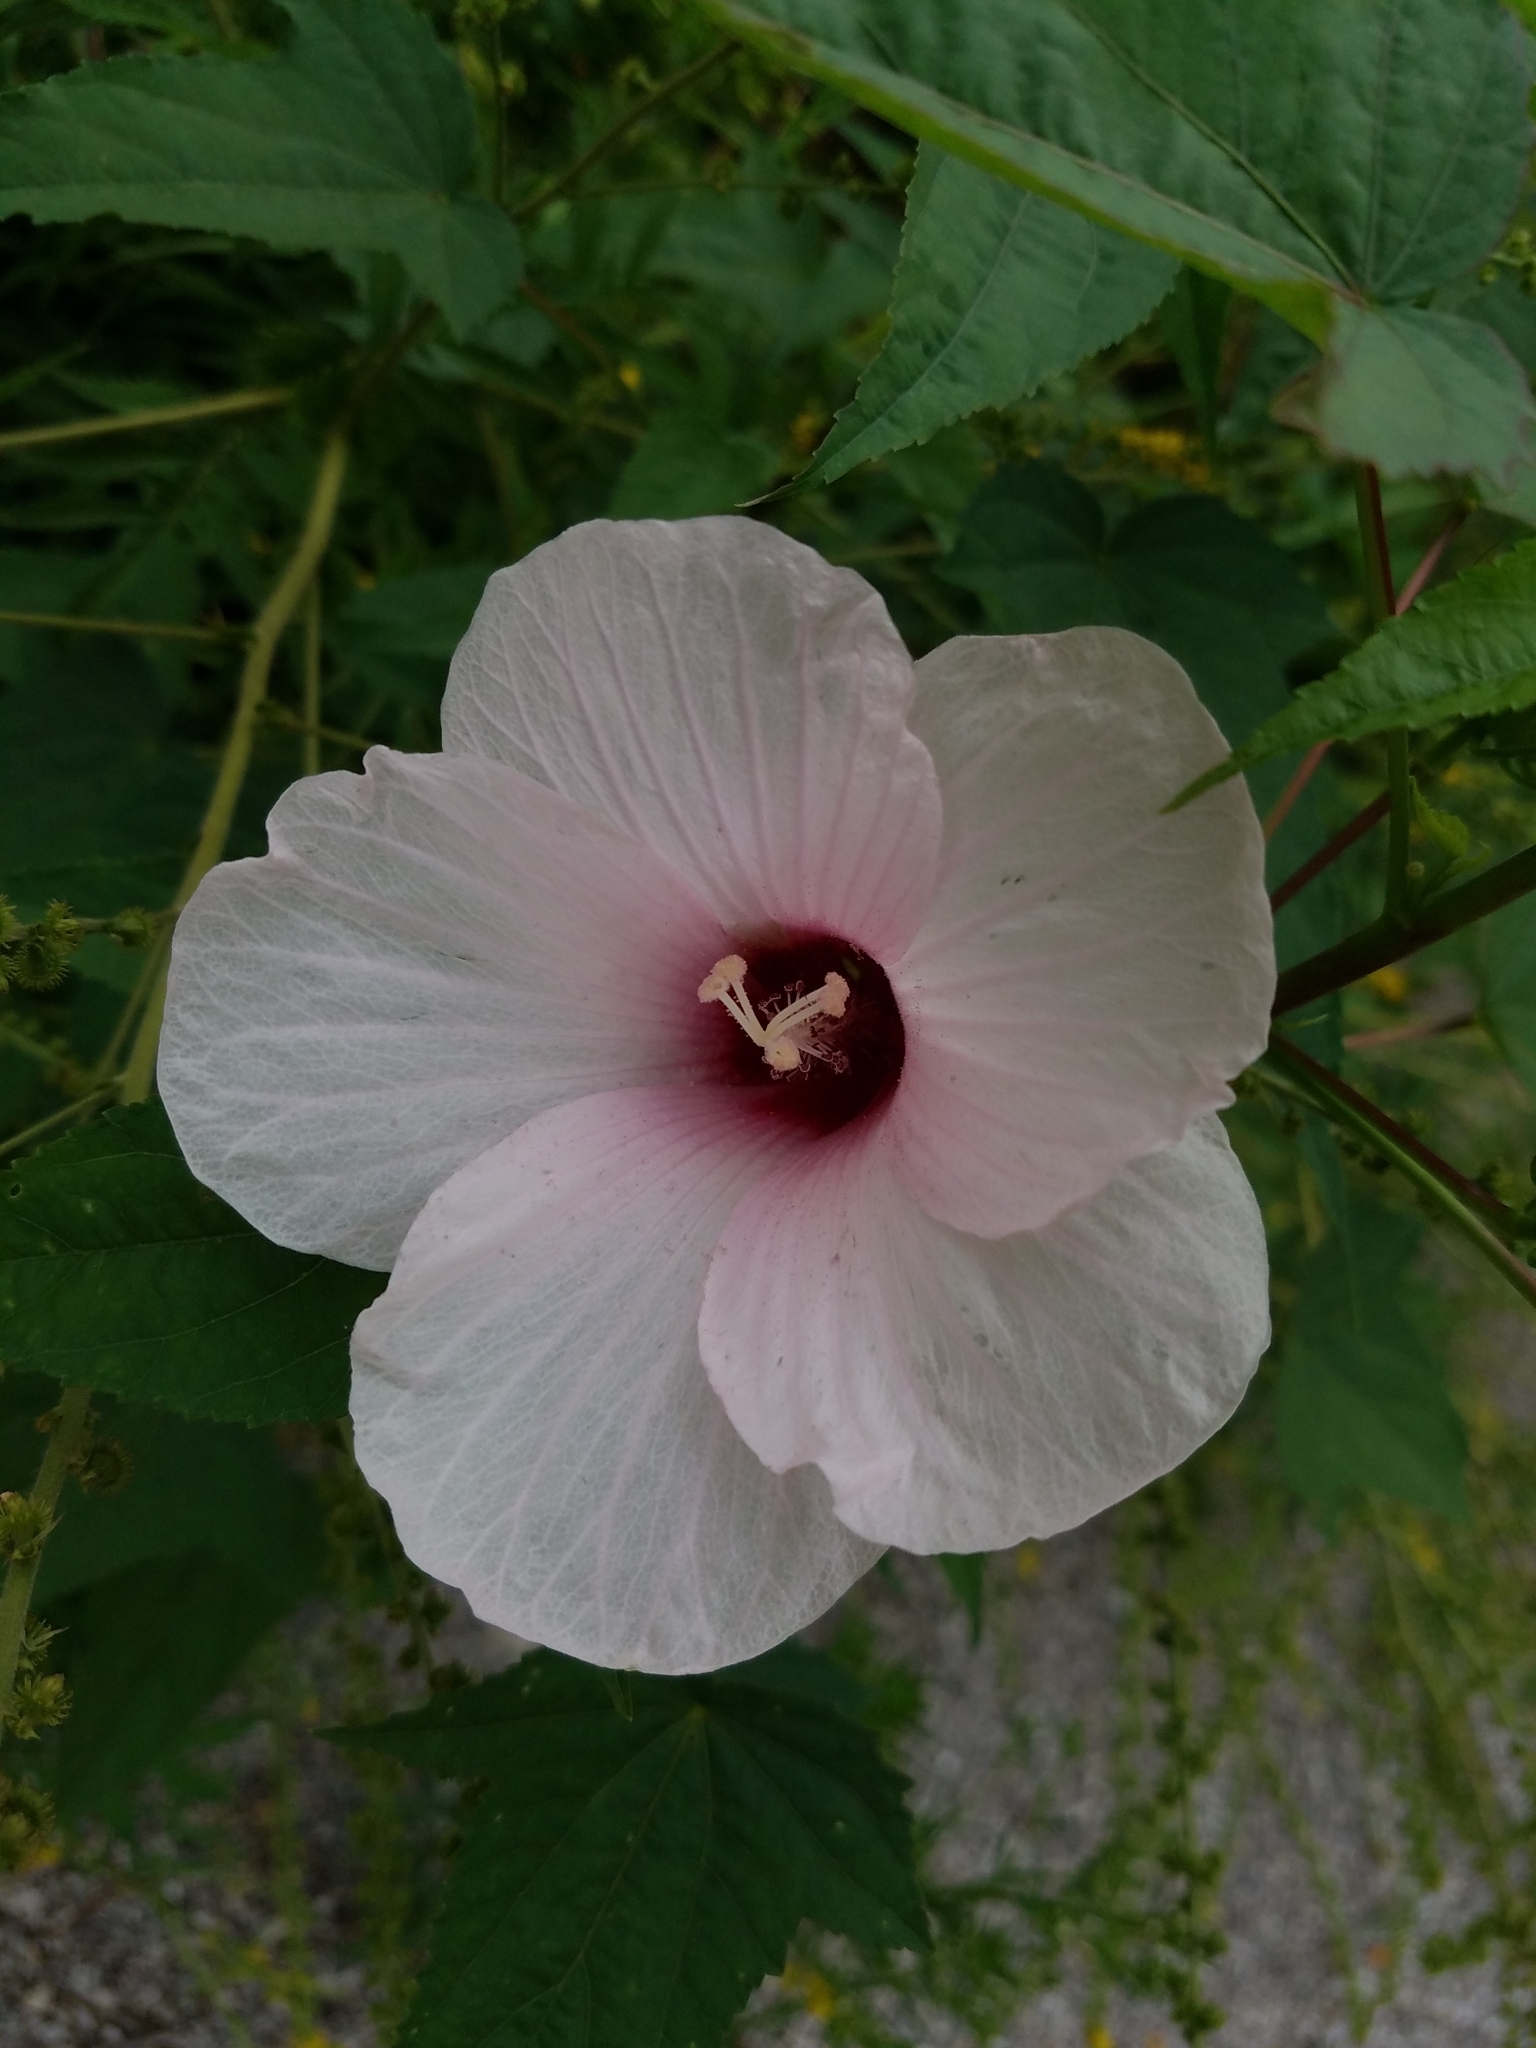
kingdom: Plantae
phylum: Tracheophyta
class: Magnoliopsida
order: Malvales
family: Malvaceae
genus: Hibiscus
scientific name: Hibiscus laevis
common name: Scarlet rose-mallow
